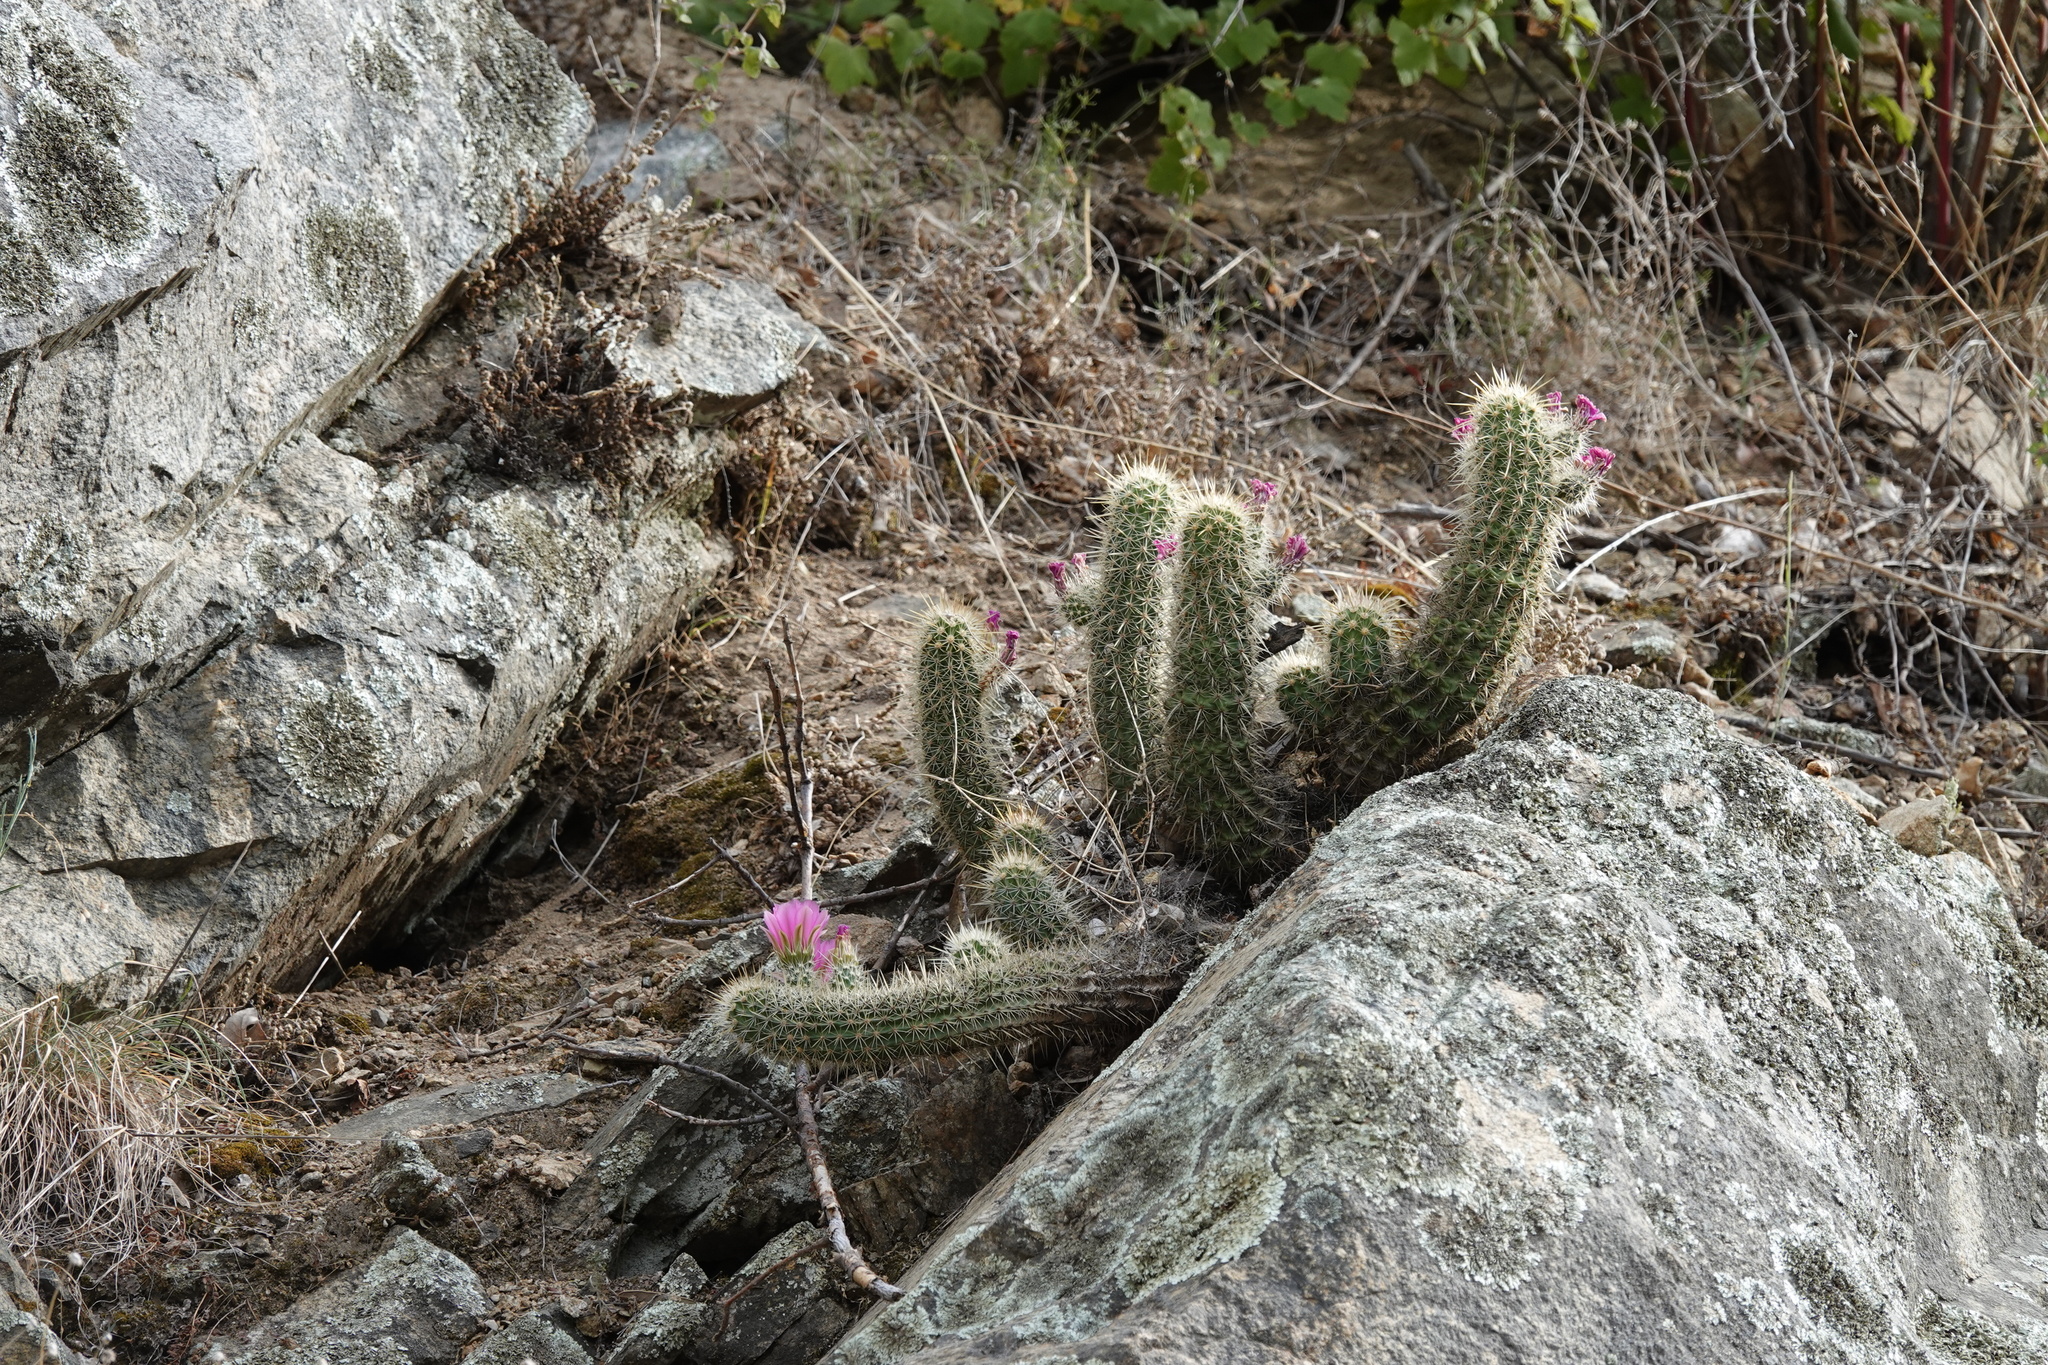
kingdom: Plantae
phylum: Tracheophyta
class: Magnoliopsida
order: Caryophyllales
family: Cactaceae
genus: Echinocereus
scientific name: Echinocereus ledingii
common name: Leding's hedgehog cactus
